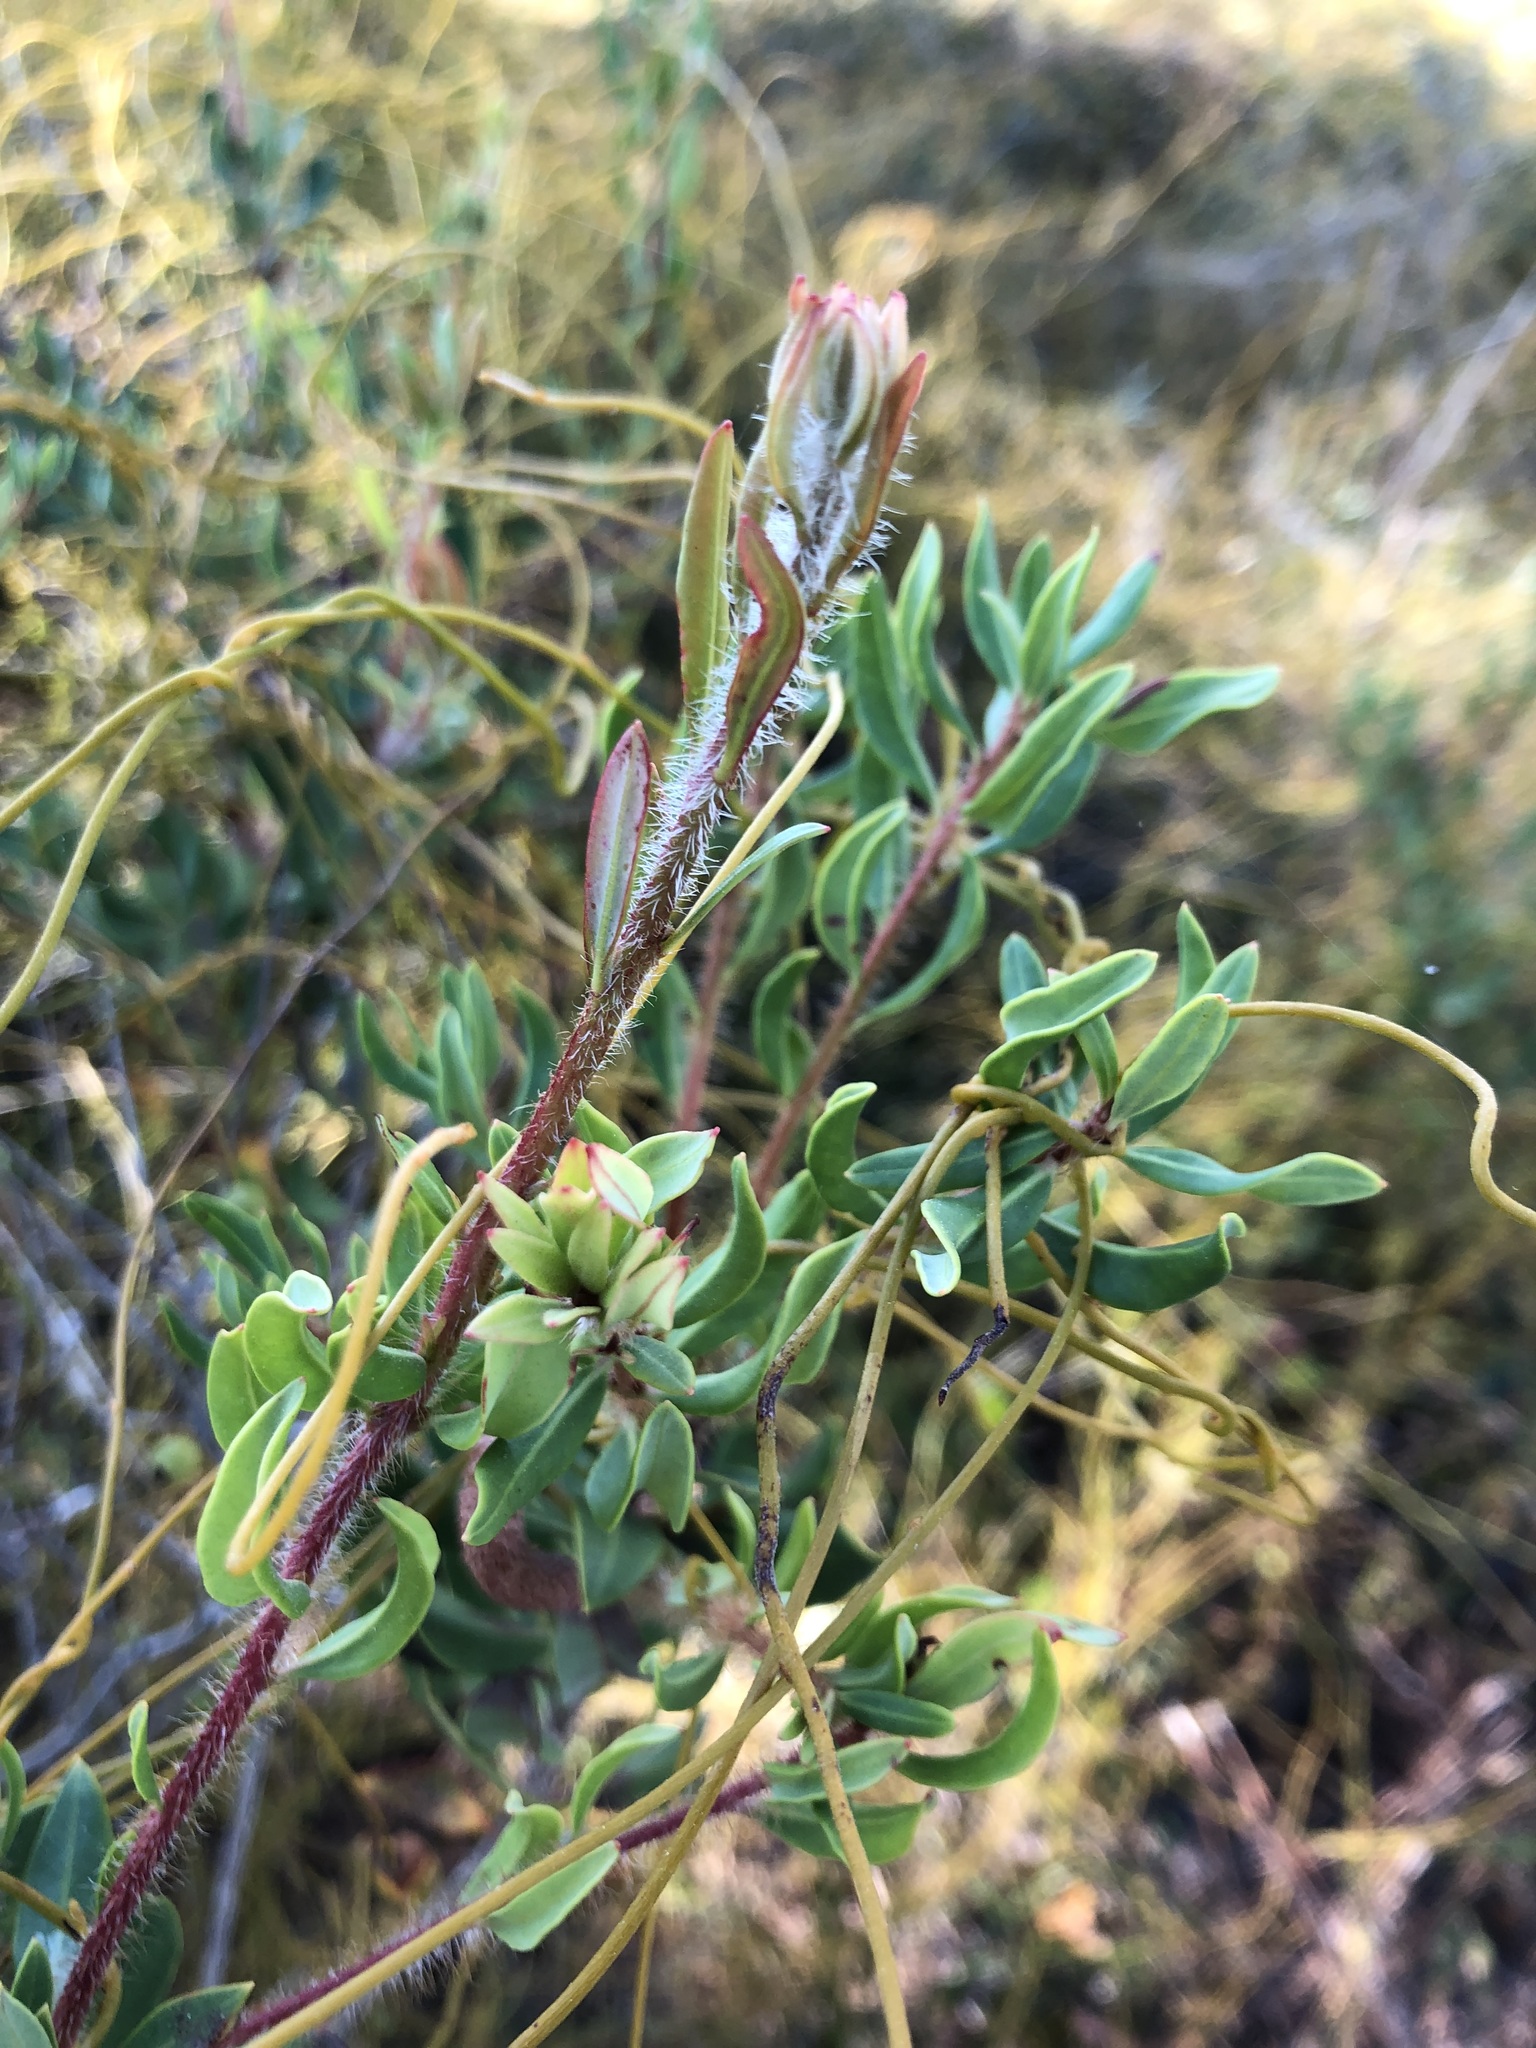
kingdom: Plantae
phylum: Tracheophyta
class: Magnoliopsida
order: Ericales
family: Ericaceae
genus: Bejaria
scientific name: Bejaria racemosa
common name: Tarflower
